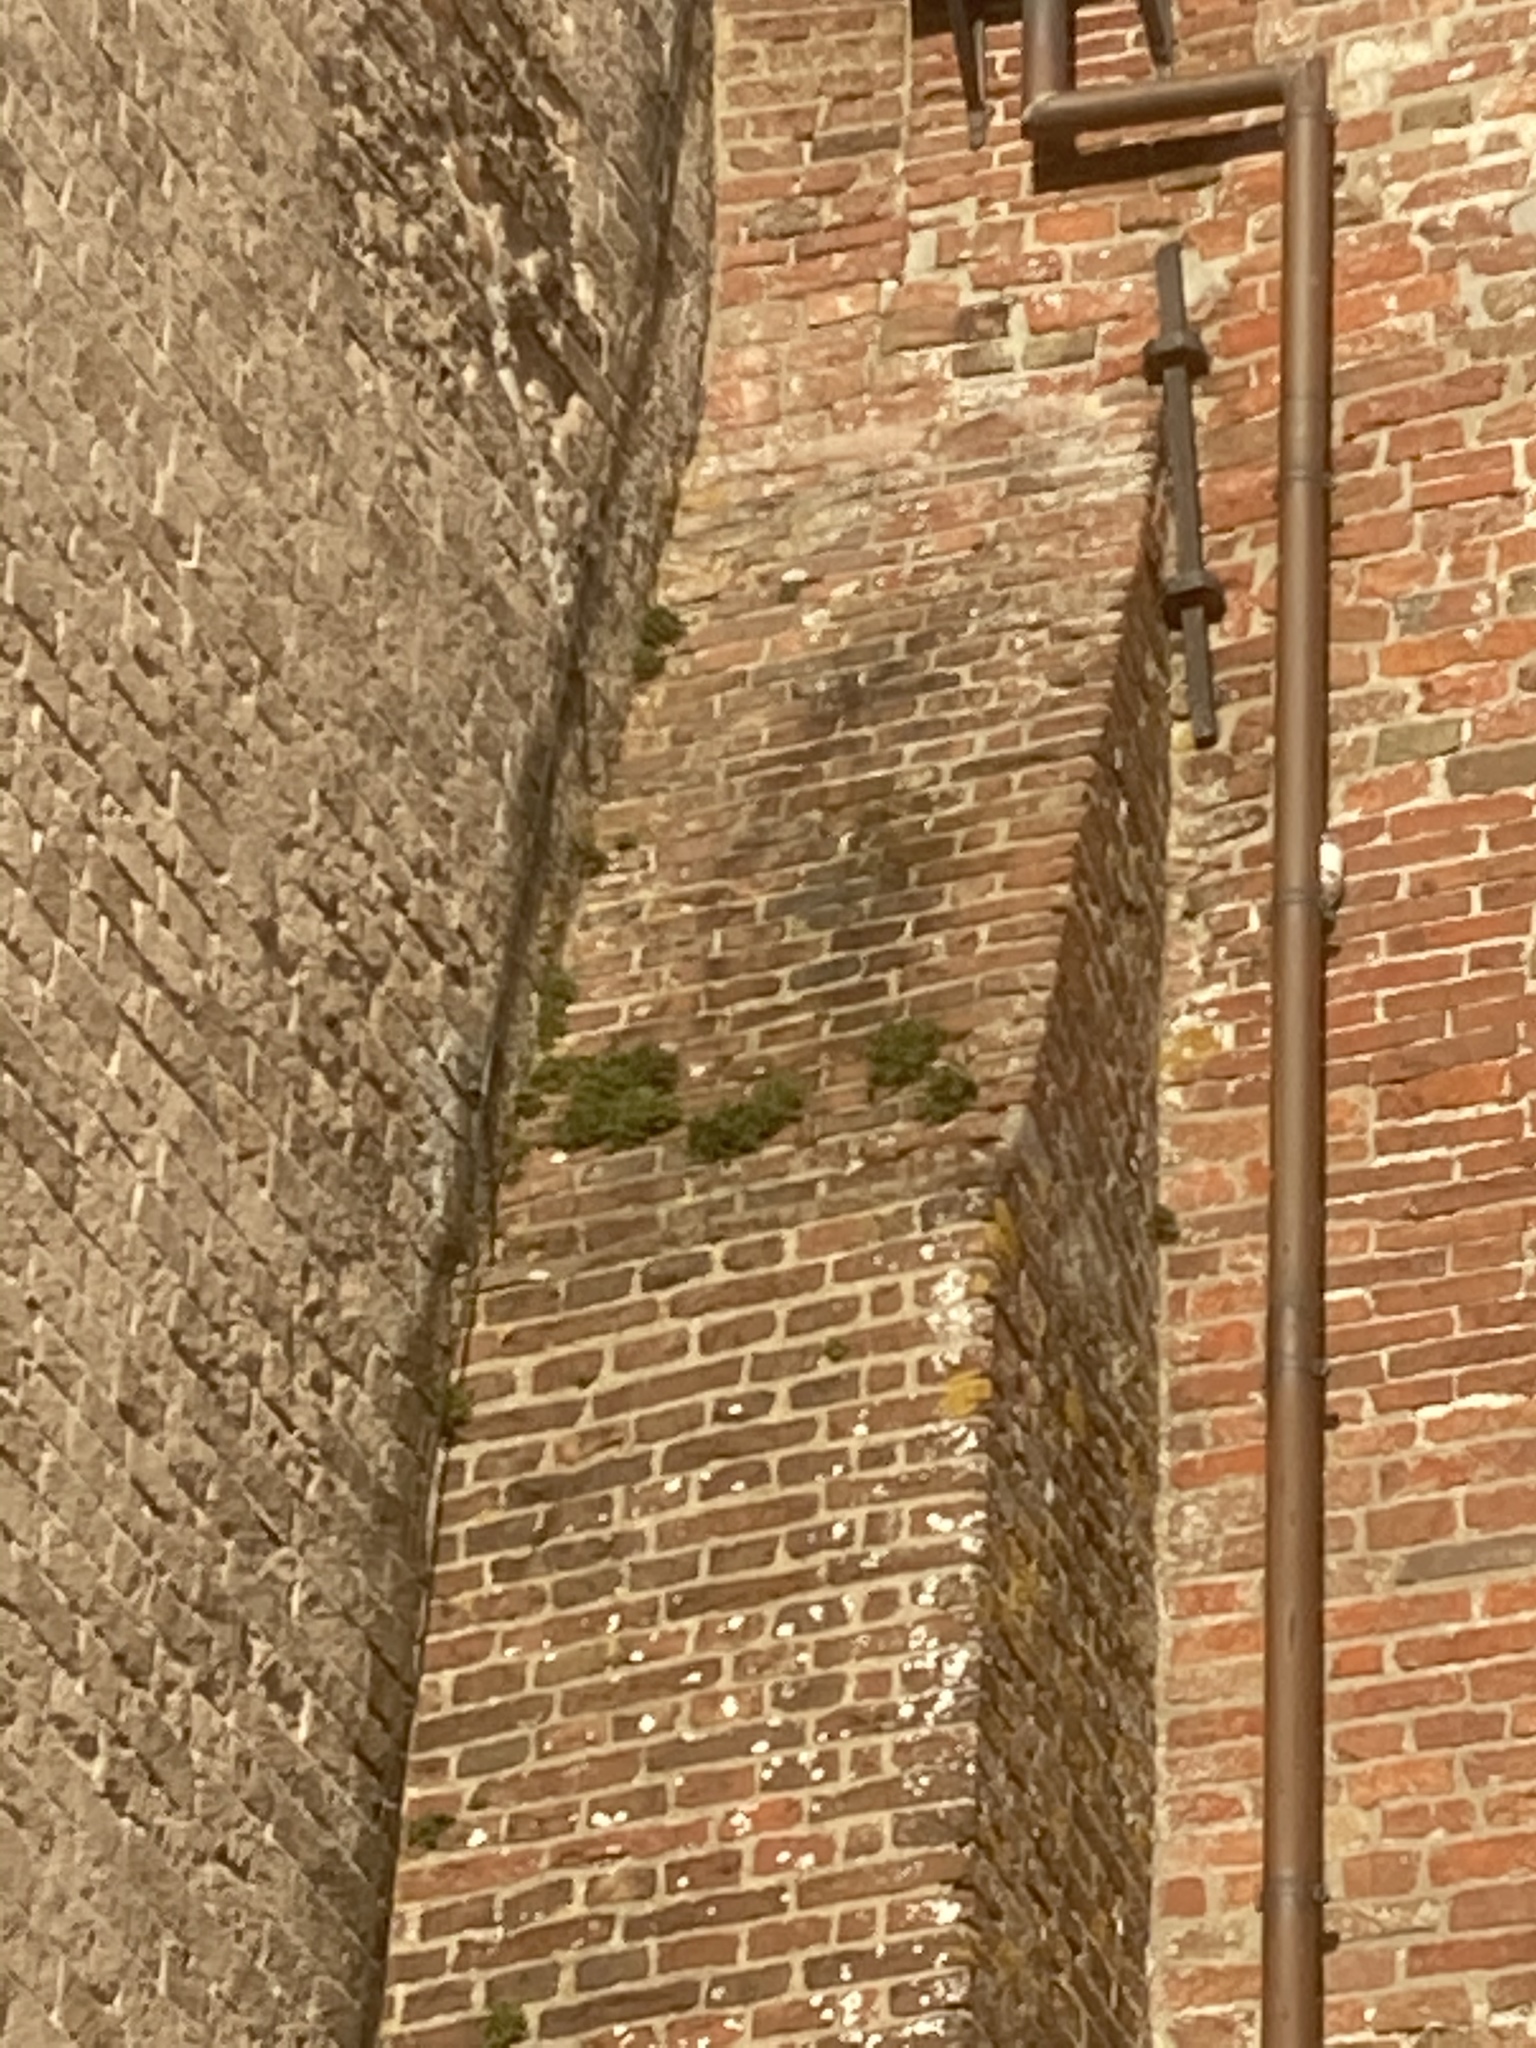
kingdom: Plantae
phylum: Tracheophyta
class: Polypodiopsida
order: Polypodiales
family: Aspleniaceae
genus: Asplenium
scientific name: Asplenium ruta-muraria
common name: Wall-rue
